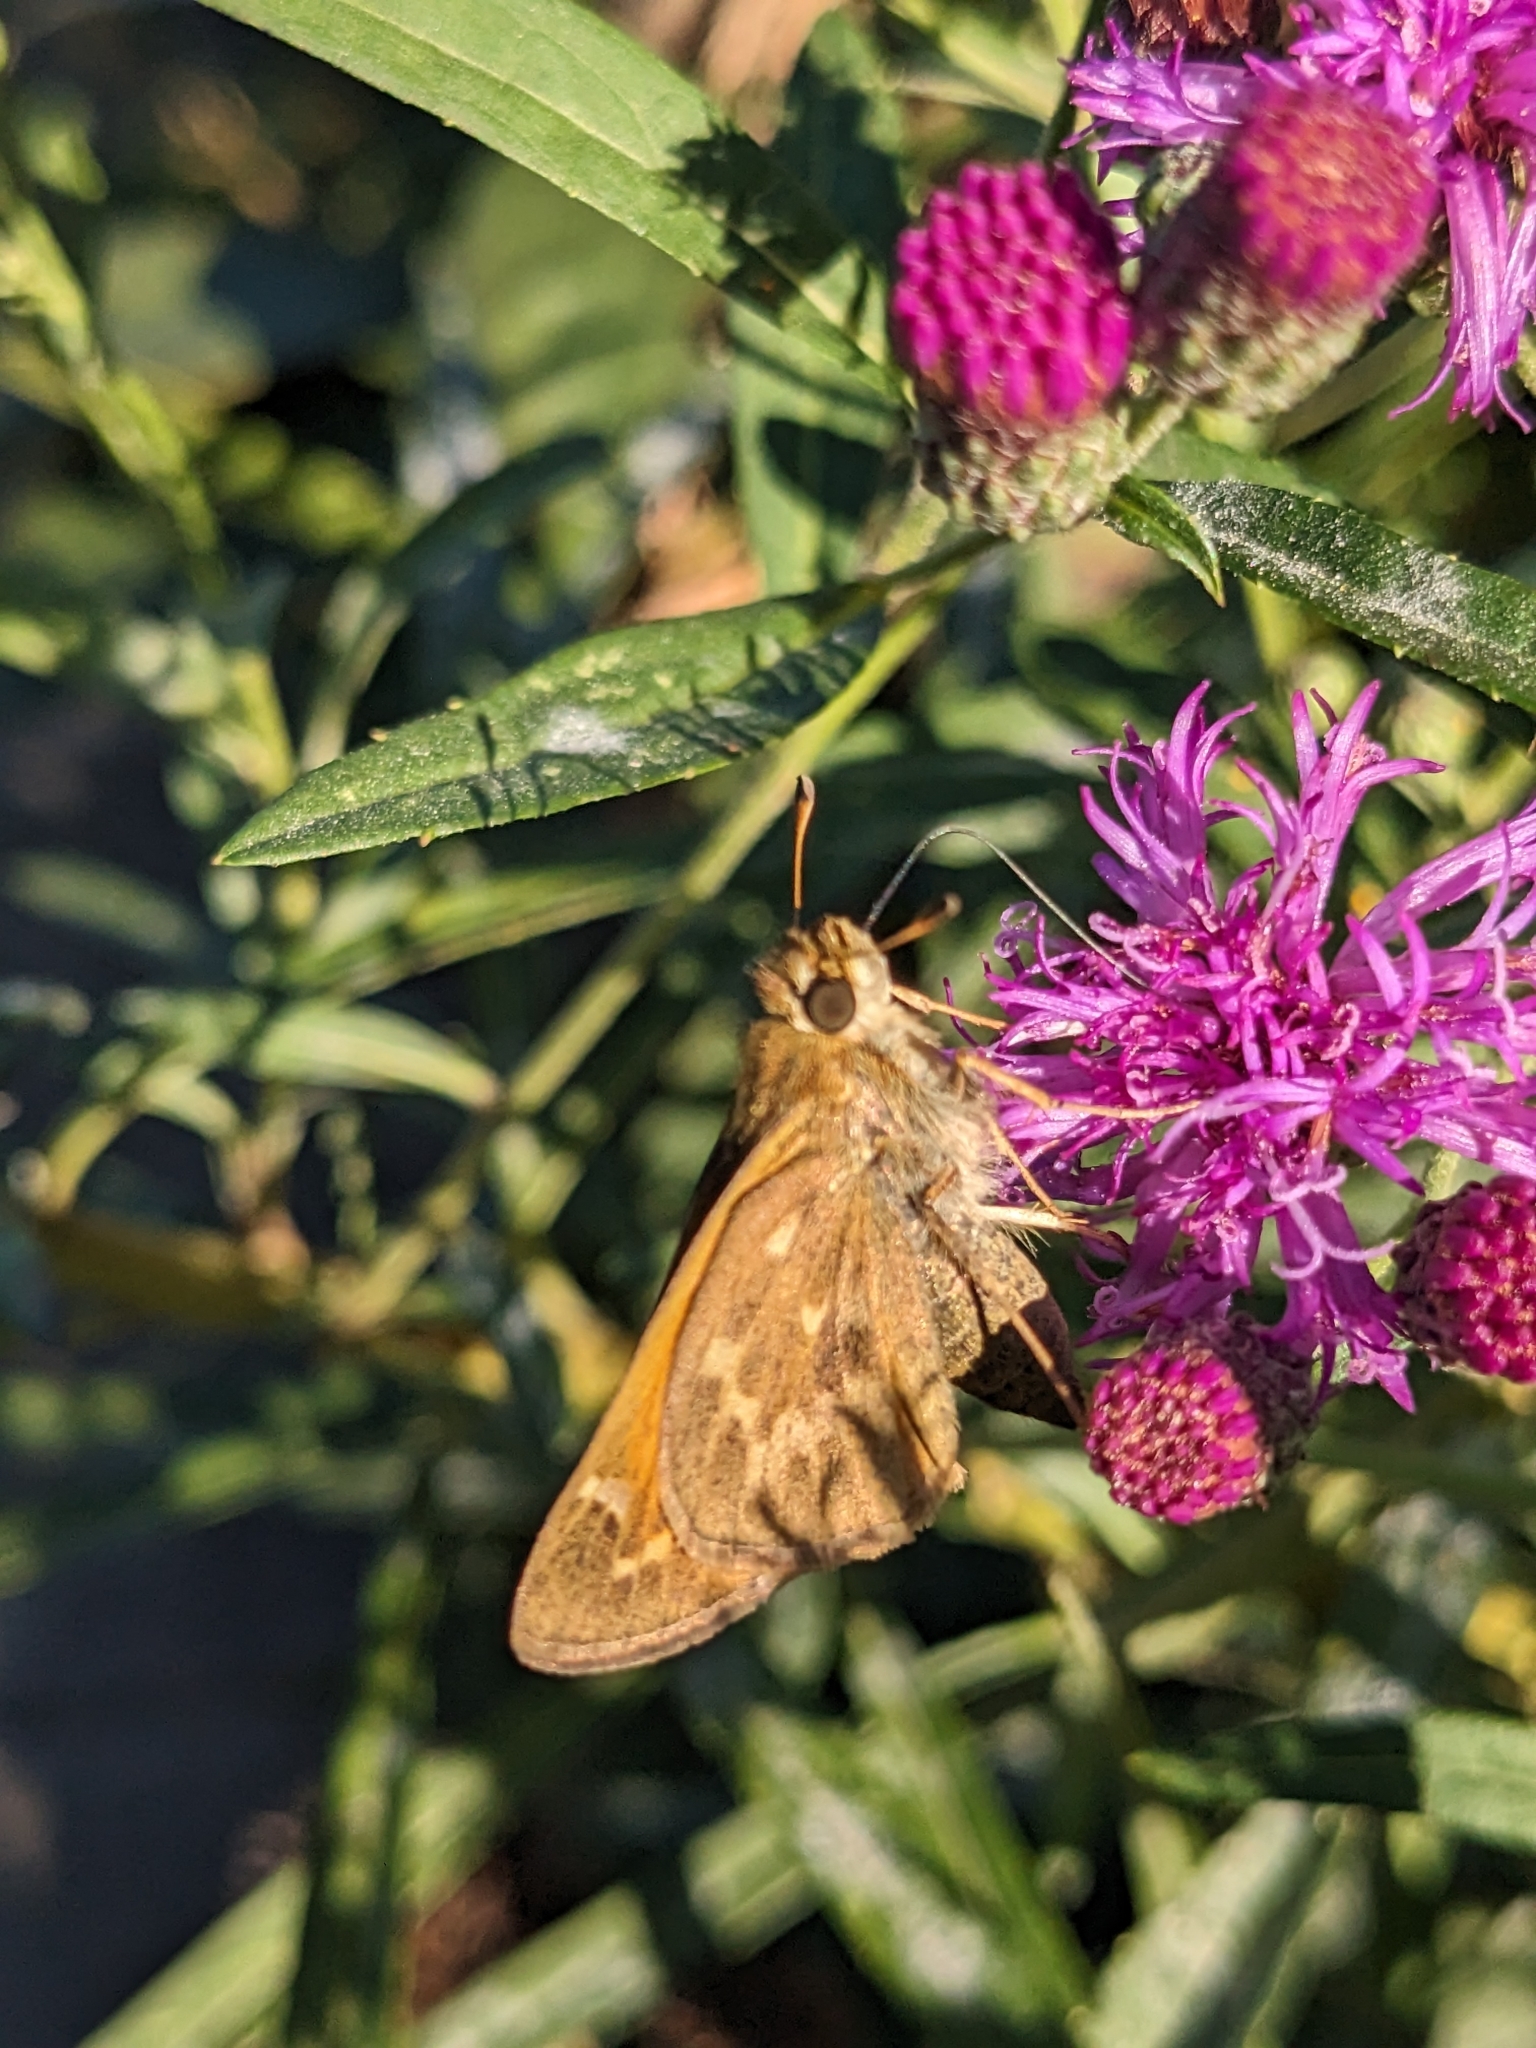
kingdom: Animalia
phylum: Arthropoda
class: Insecta
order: Lepidoptera
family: Hesperiidae
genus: Atalopedes
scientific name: Atalopedes
